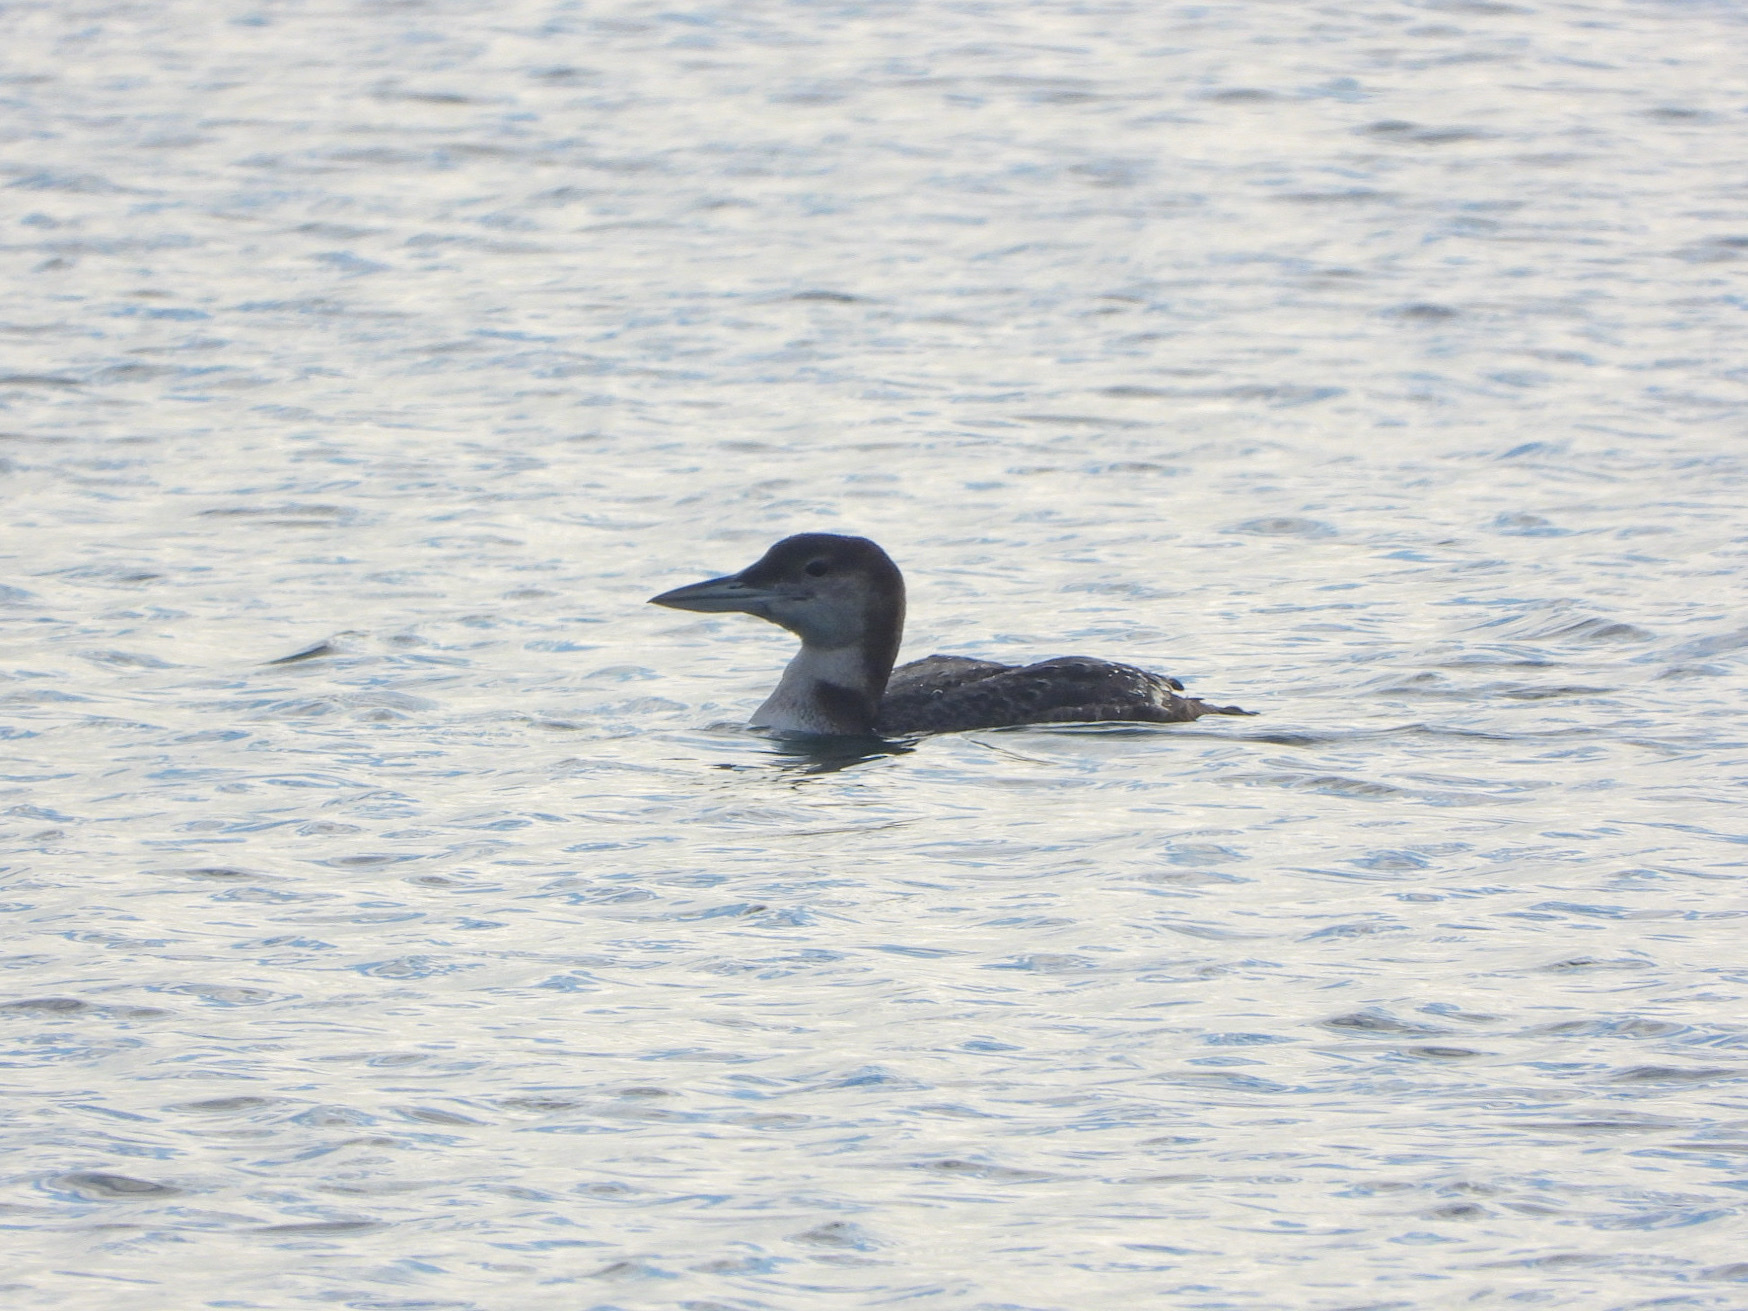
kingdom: Animalia
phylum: Chordata
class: Aves
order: Gaviiformes
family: Gaviidae
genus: Gavia
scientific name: Gavia immer
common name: Common loon
